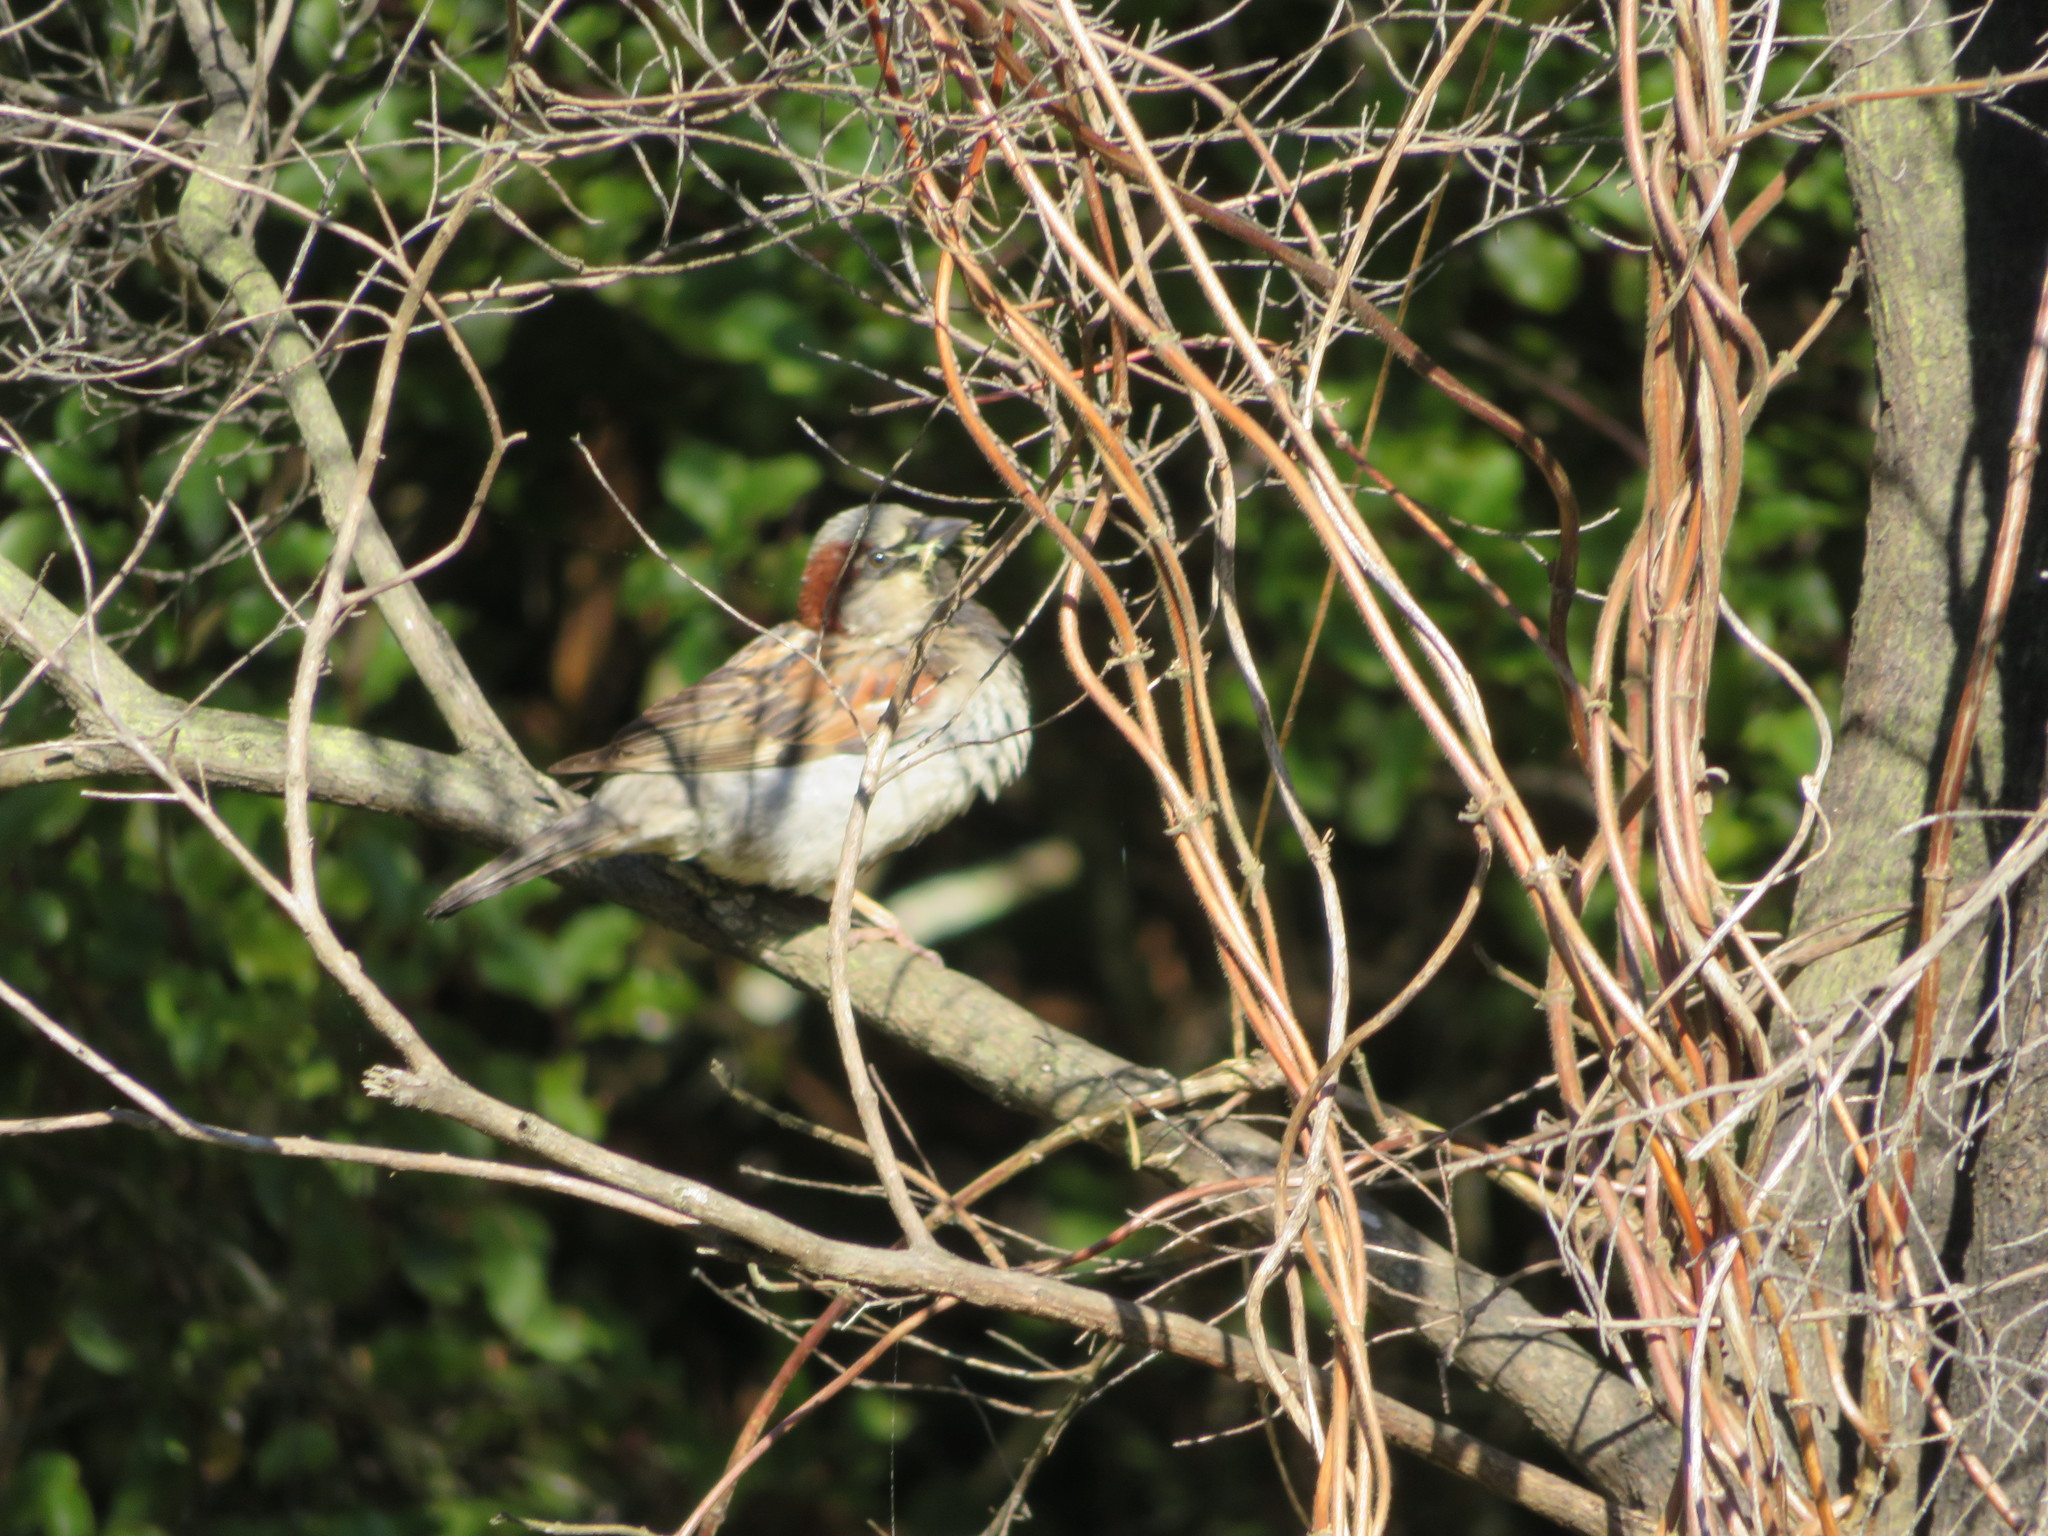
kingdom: Animalia
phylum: Chordata
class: Aves
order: Passeriformes
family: Passeridae
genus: Passer
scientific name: Passer domesticus
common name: House sparrow
